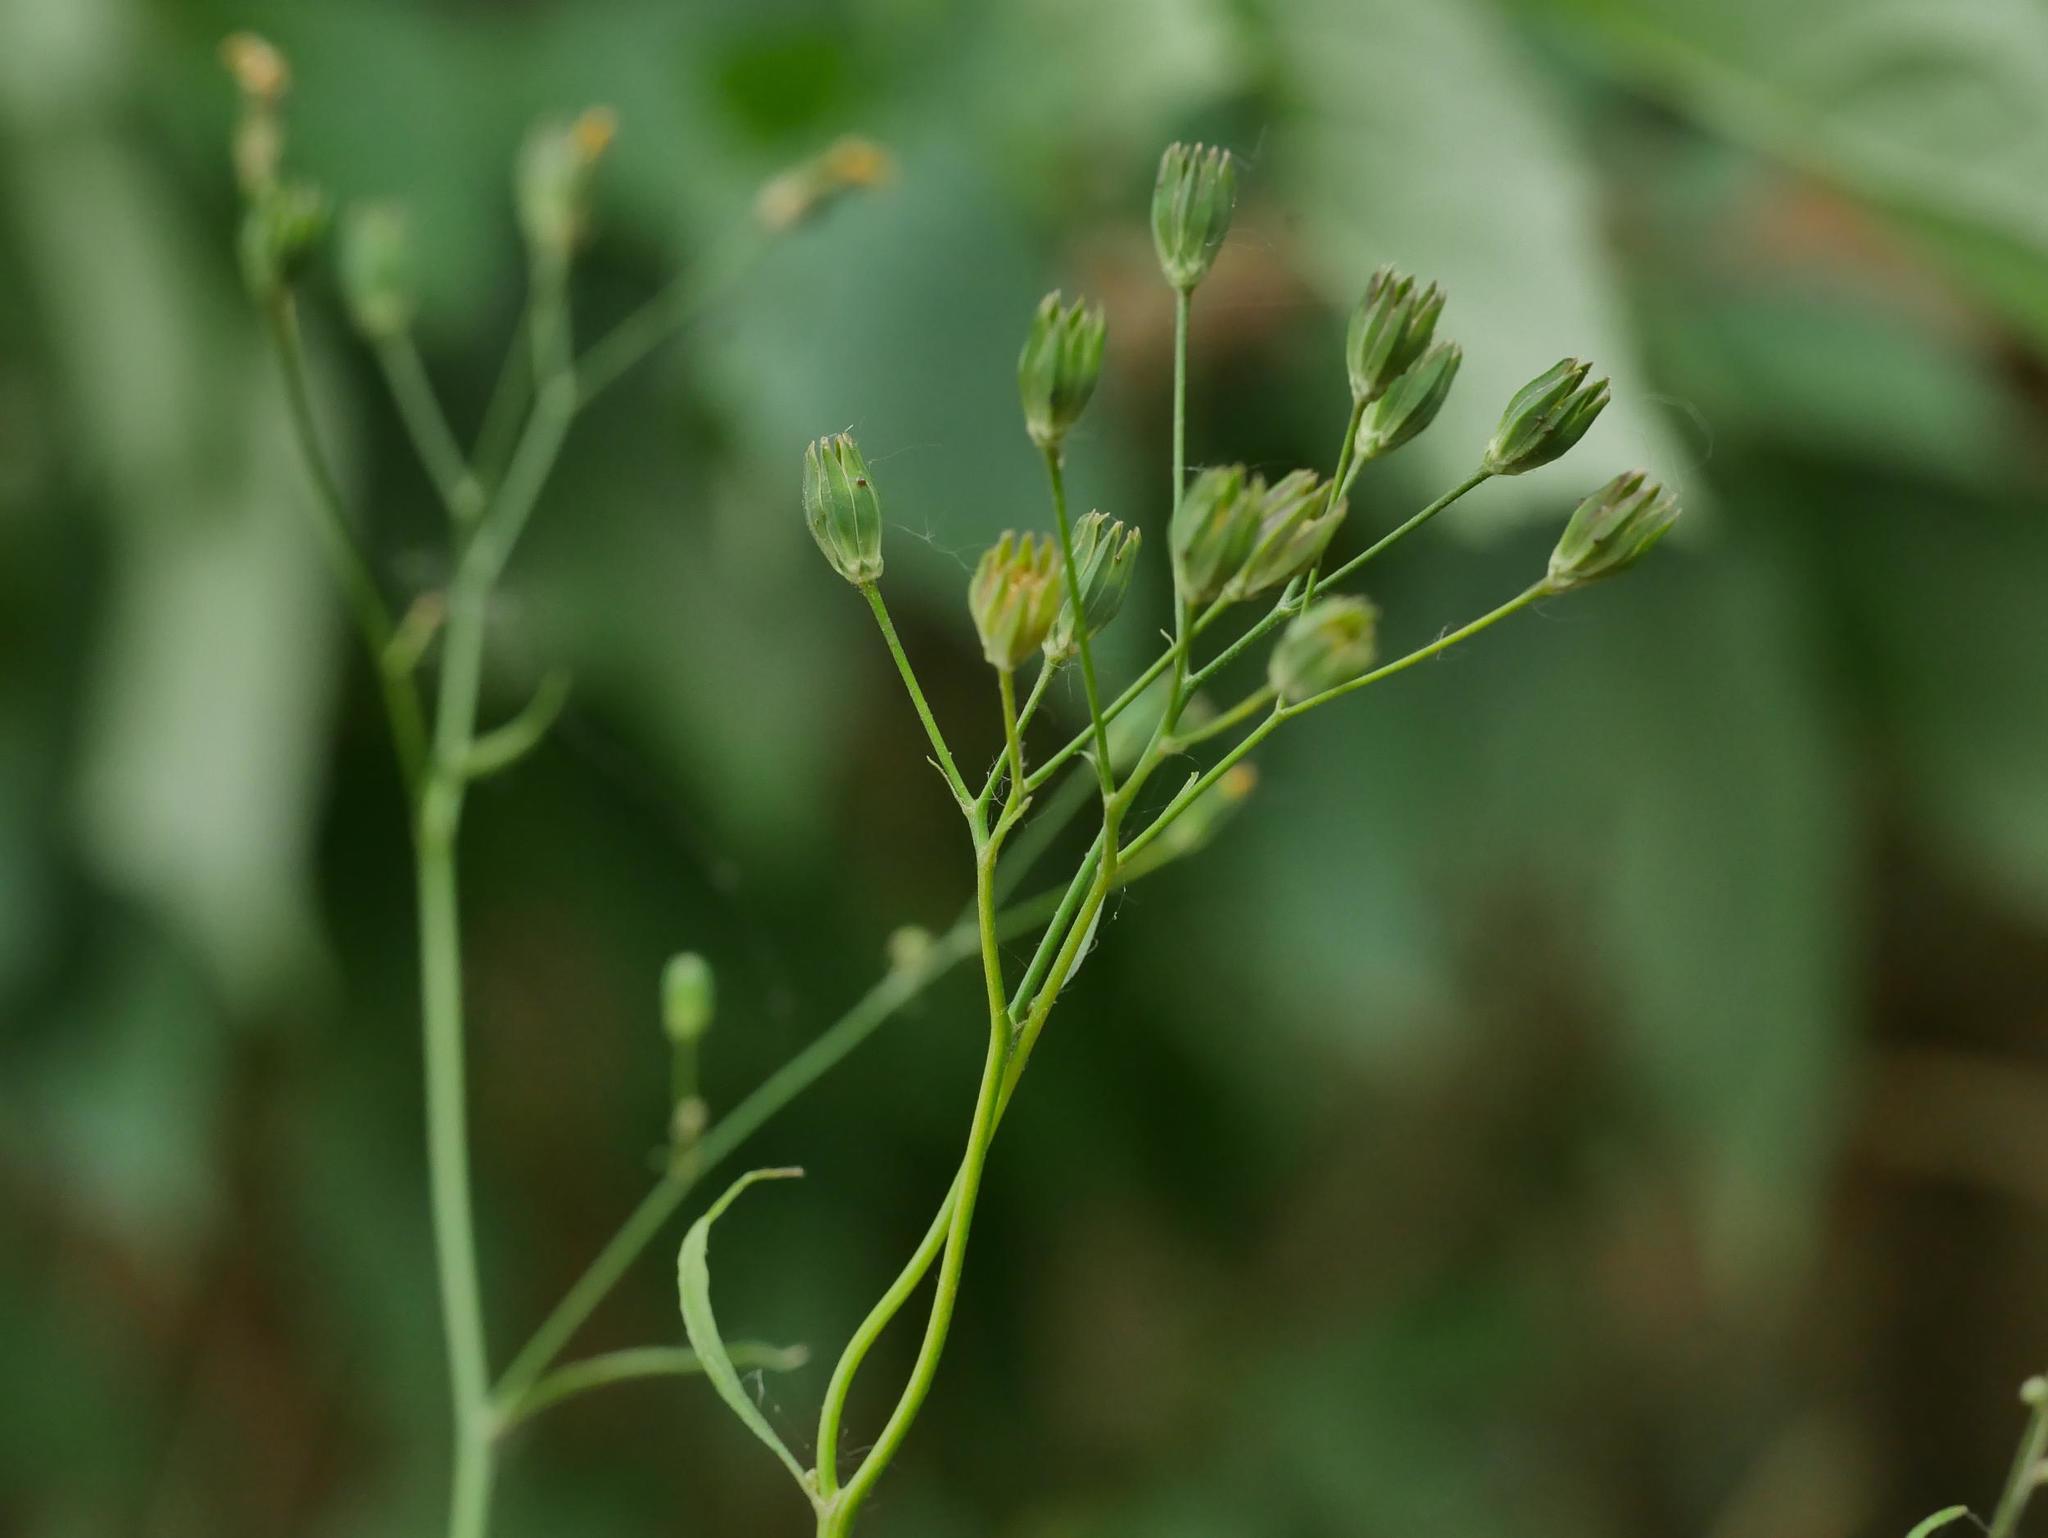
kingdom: Plantae
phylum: Tracheophyta
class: Magnoliopsida
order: Asterales
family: Asteraceae
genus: Lapsana
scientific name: Lapsana communis
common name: Nipplewort
